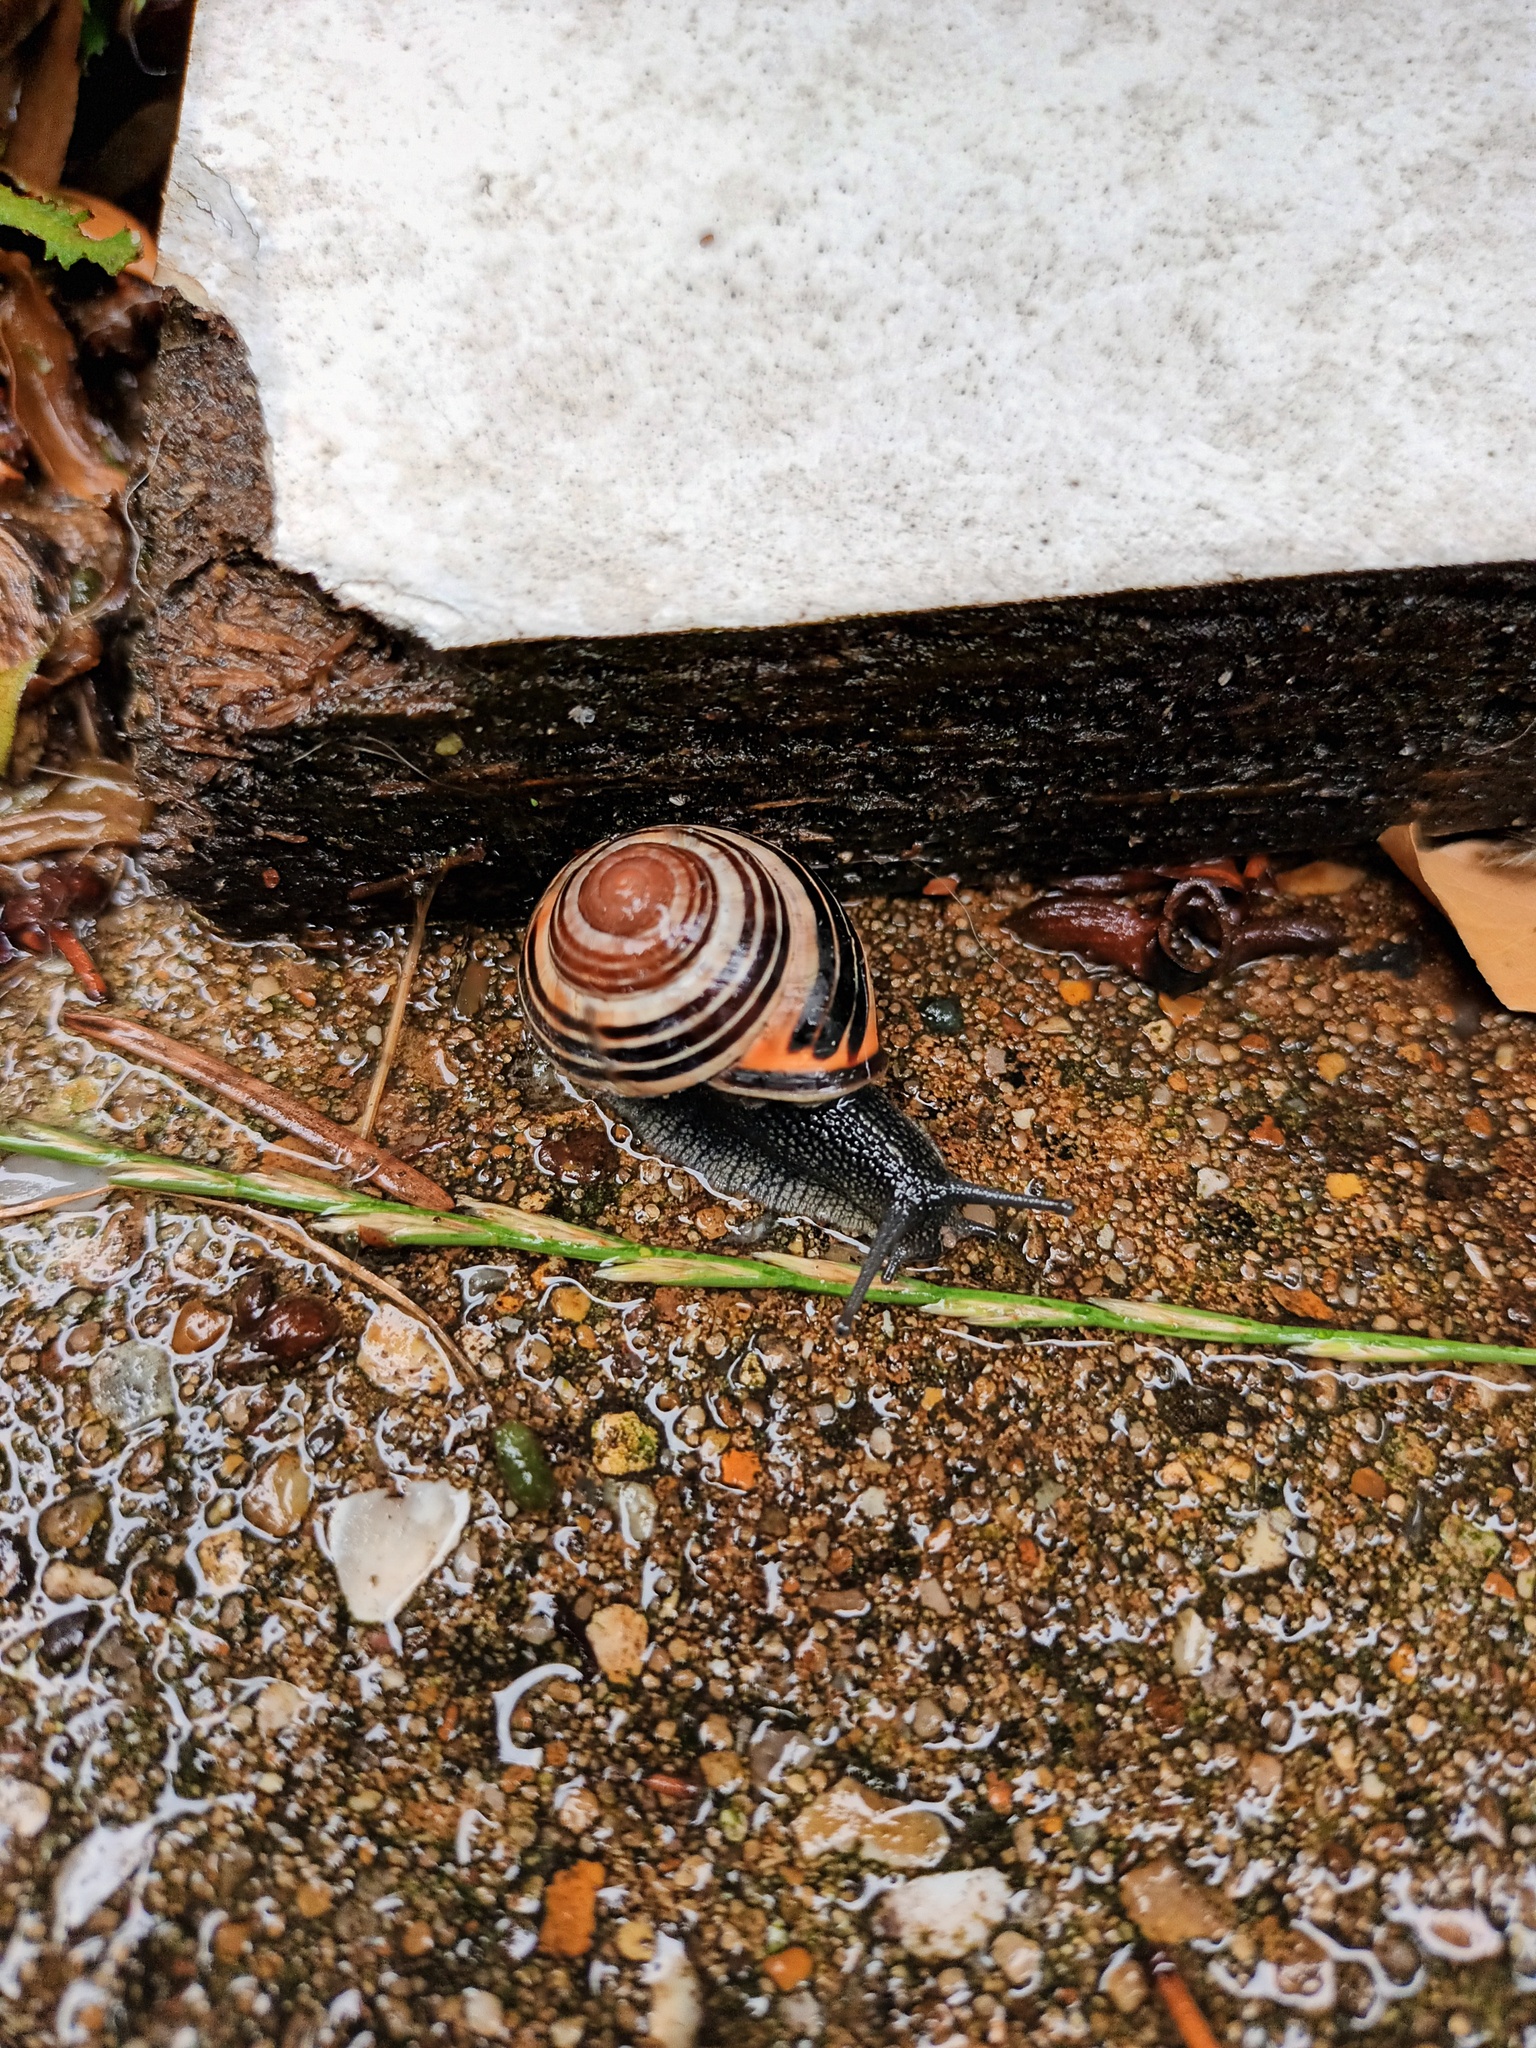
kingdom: Animalia
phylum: Mollusca
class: Gastropoda
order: Stylommatophora
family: Helicidae
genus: Cepaea
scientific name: Cepaea nemoralis
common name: Grovesnail
